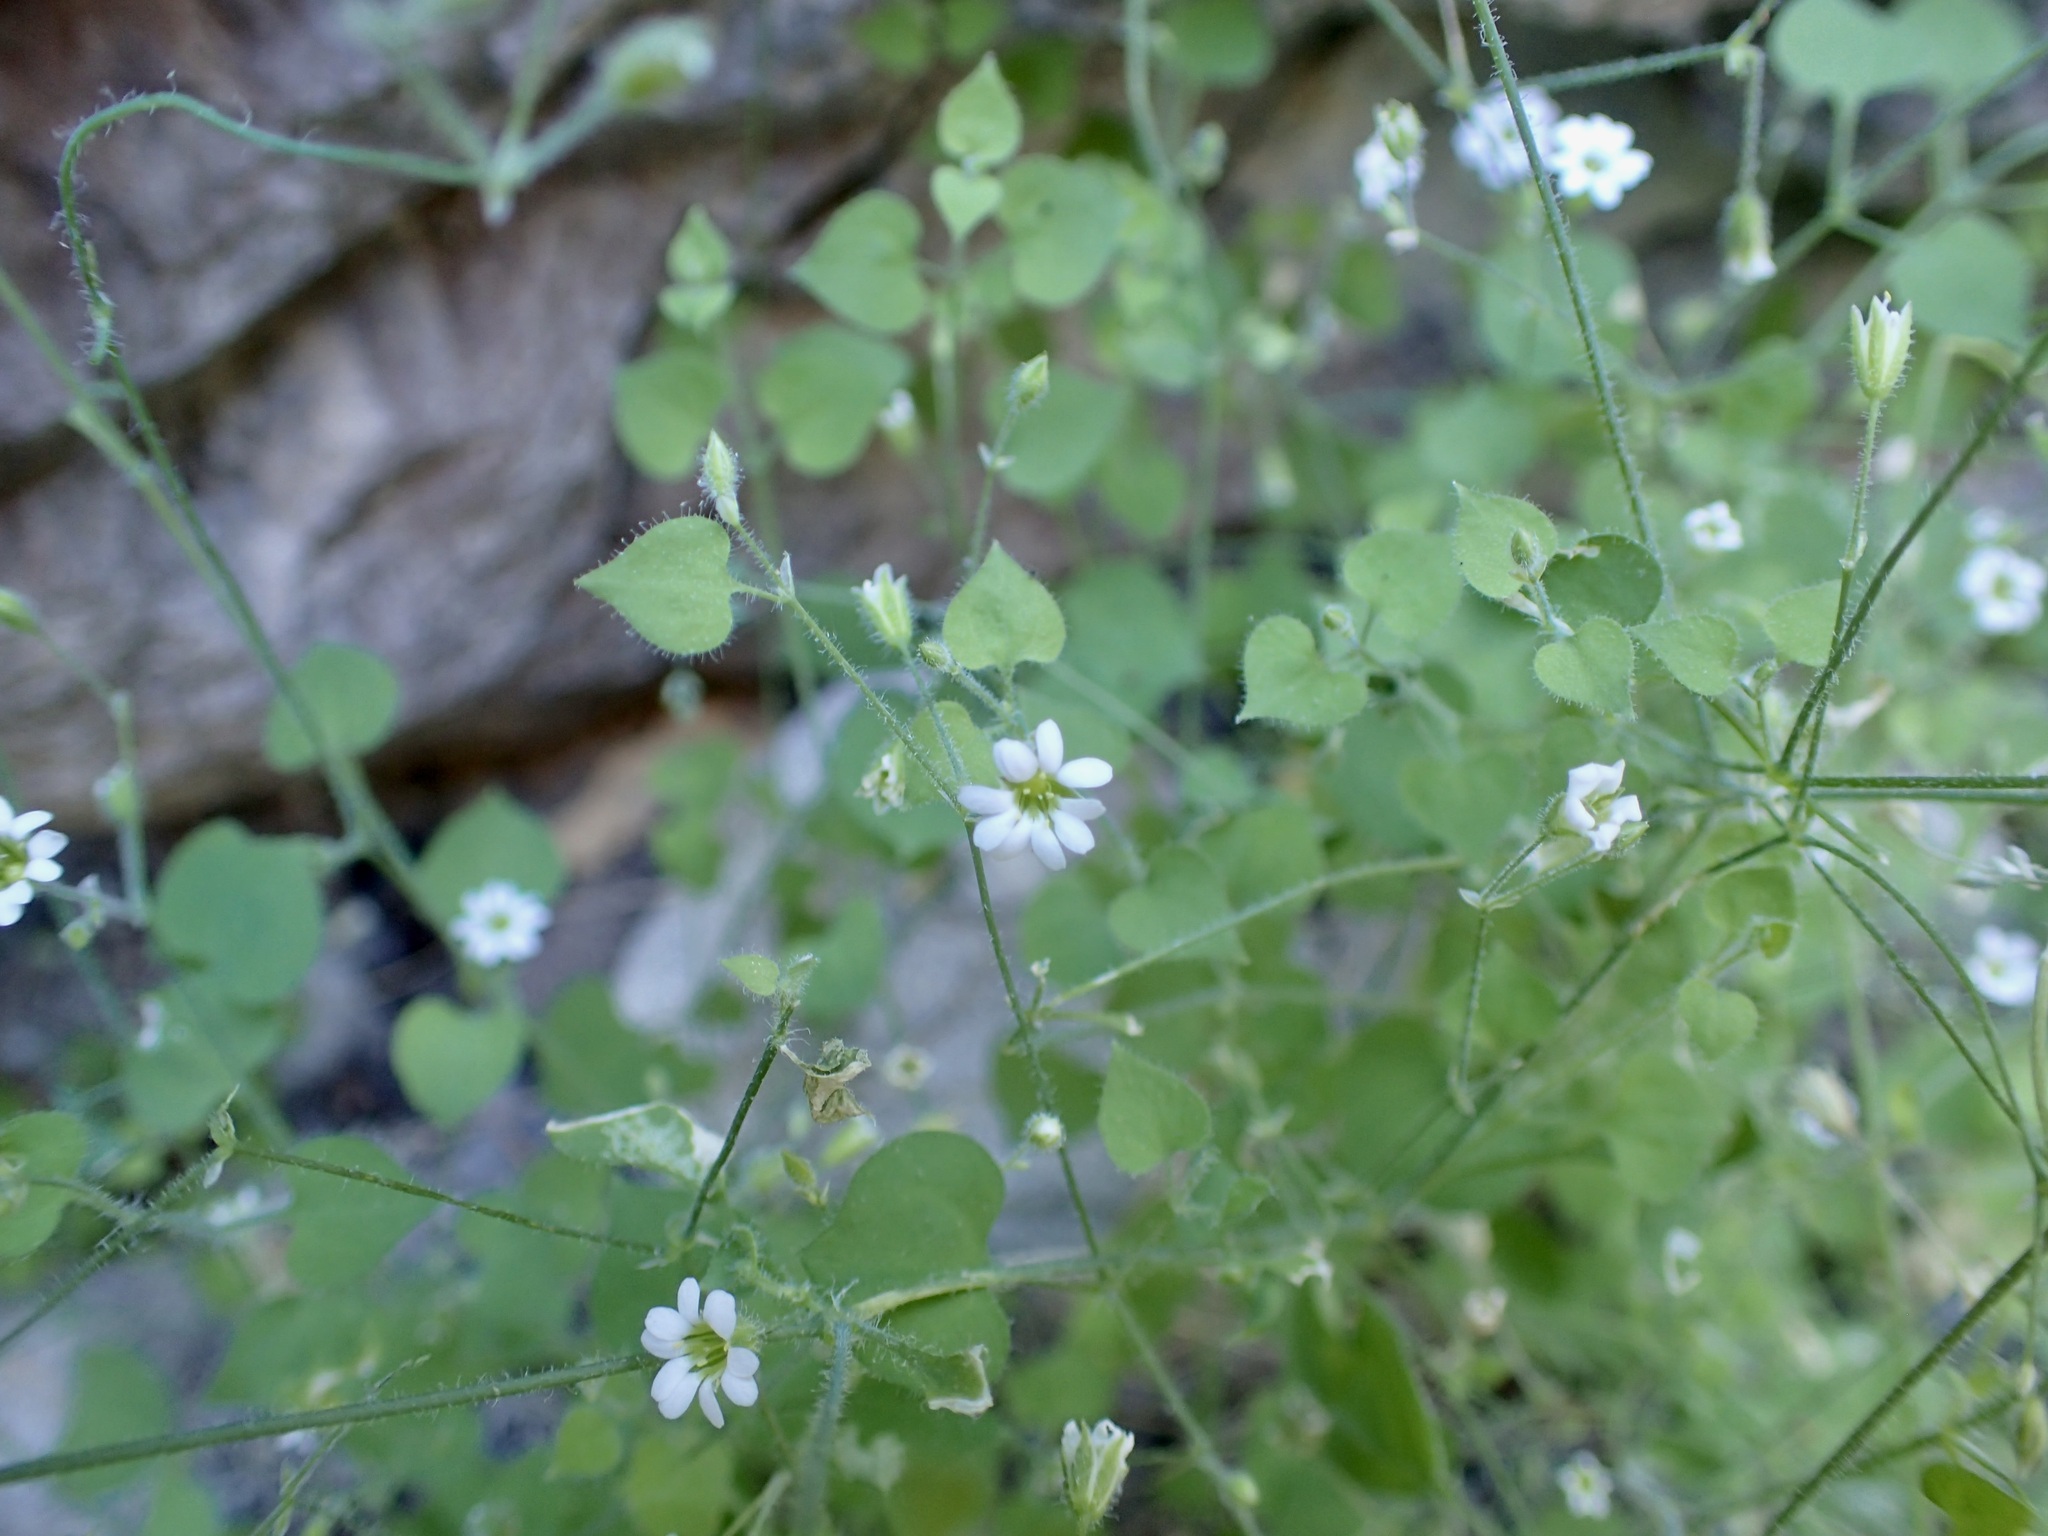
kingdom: Plantae
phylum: Tracheophyta
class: Magnoliopsida
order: Caryophyllales
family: Caryophyllaceae
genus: Drymaria
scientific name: Drymaria debilis
